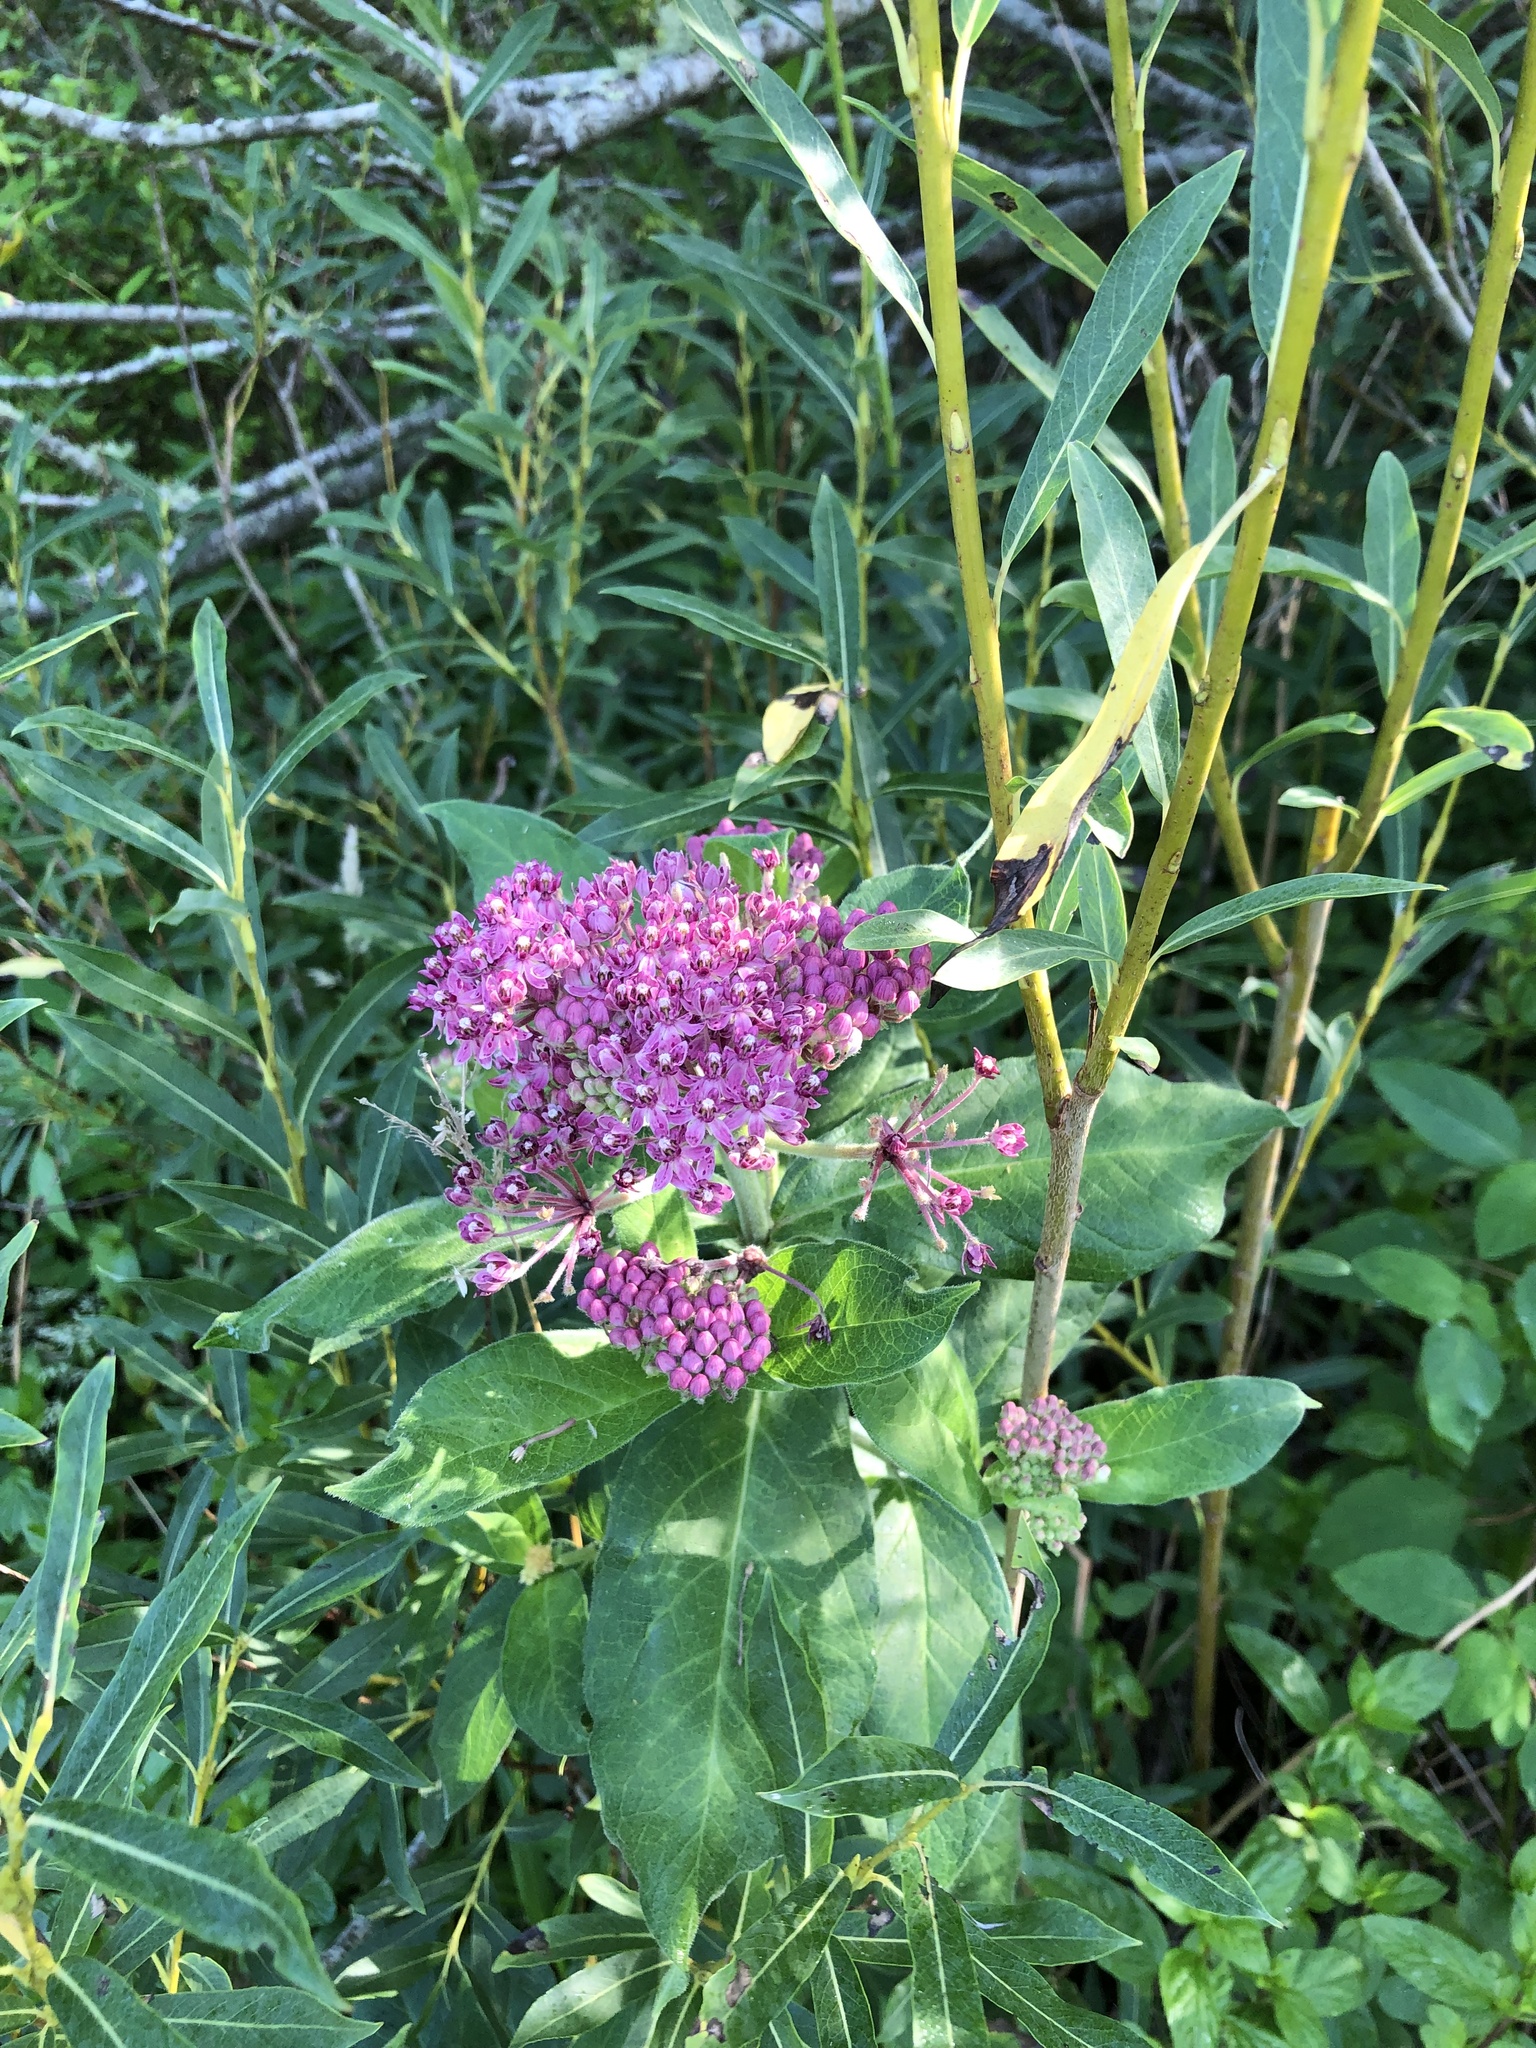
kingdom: Plantae
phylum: Tracheophyta
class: Magnoliopsida
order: Gentianales
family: Apocynaceae
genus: Asclepias
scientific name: Asclepias incarnata
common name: Swamp milkweed
